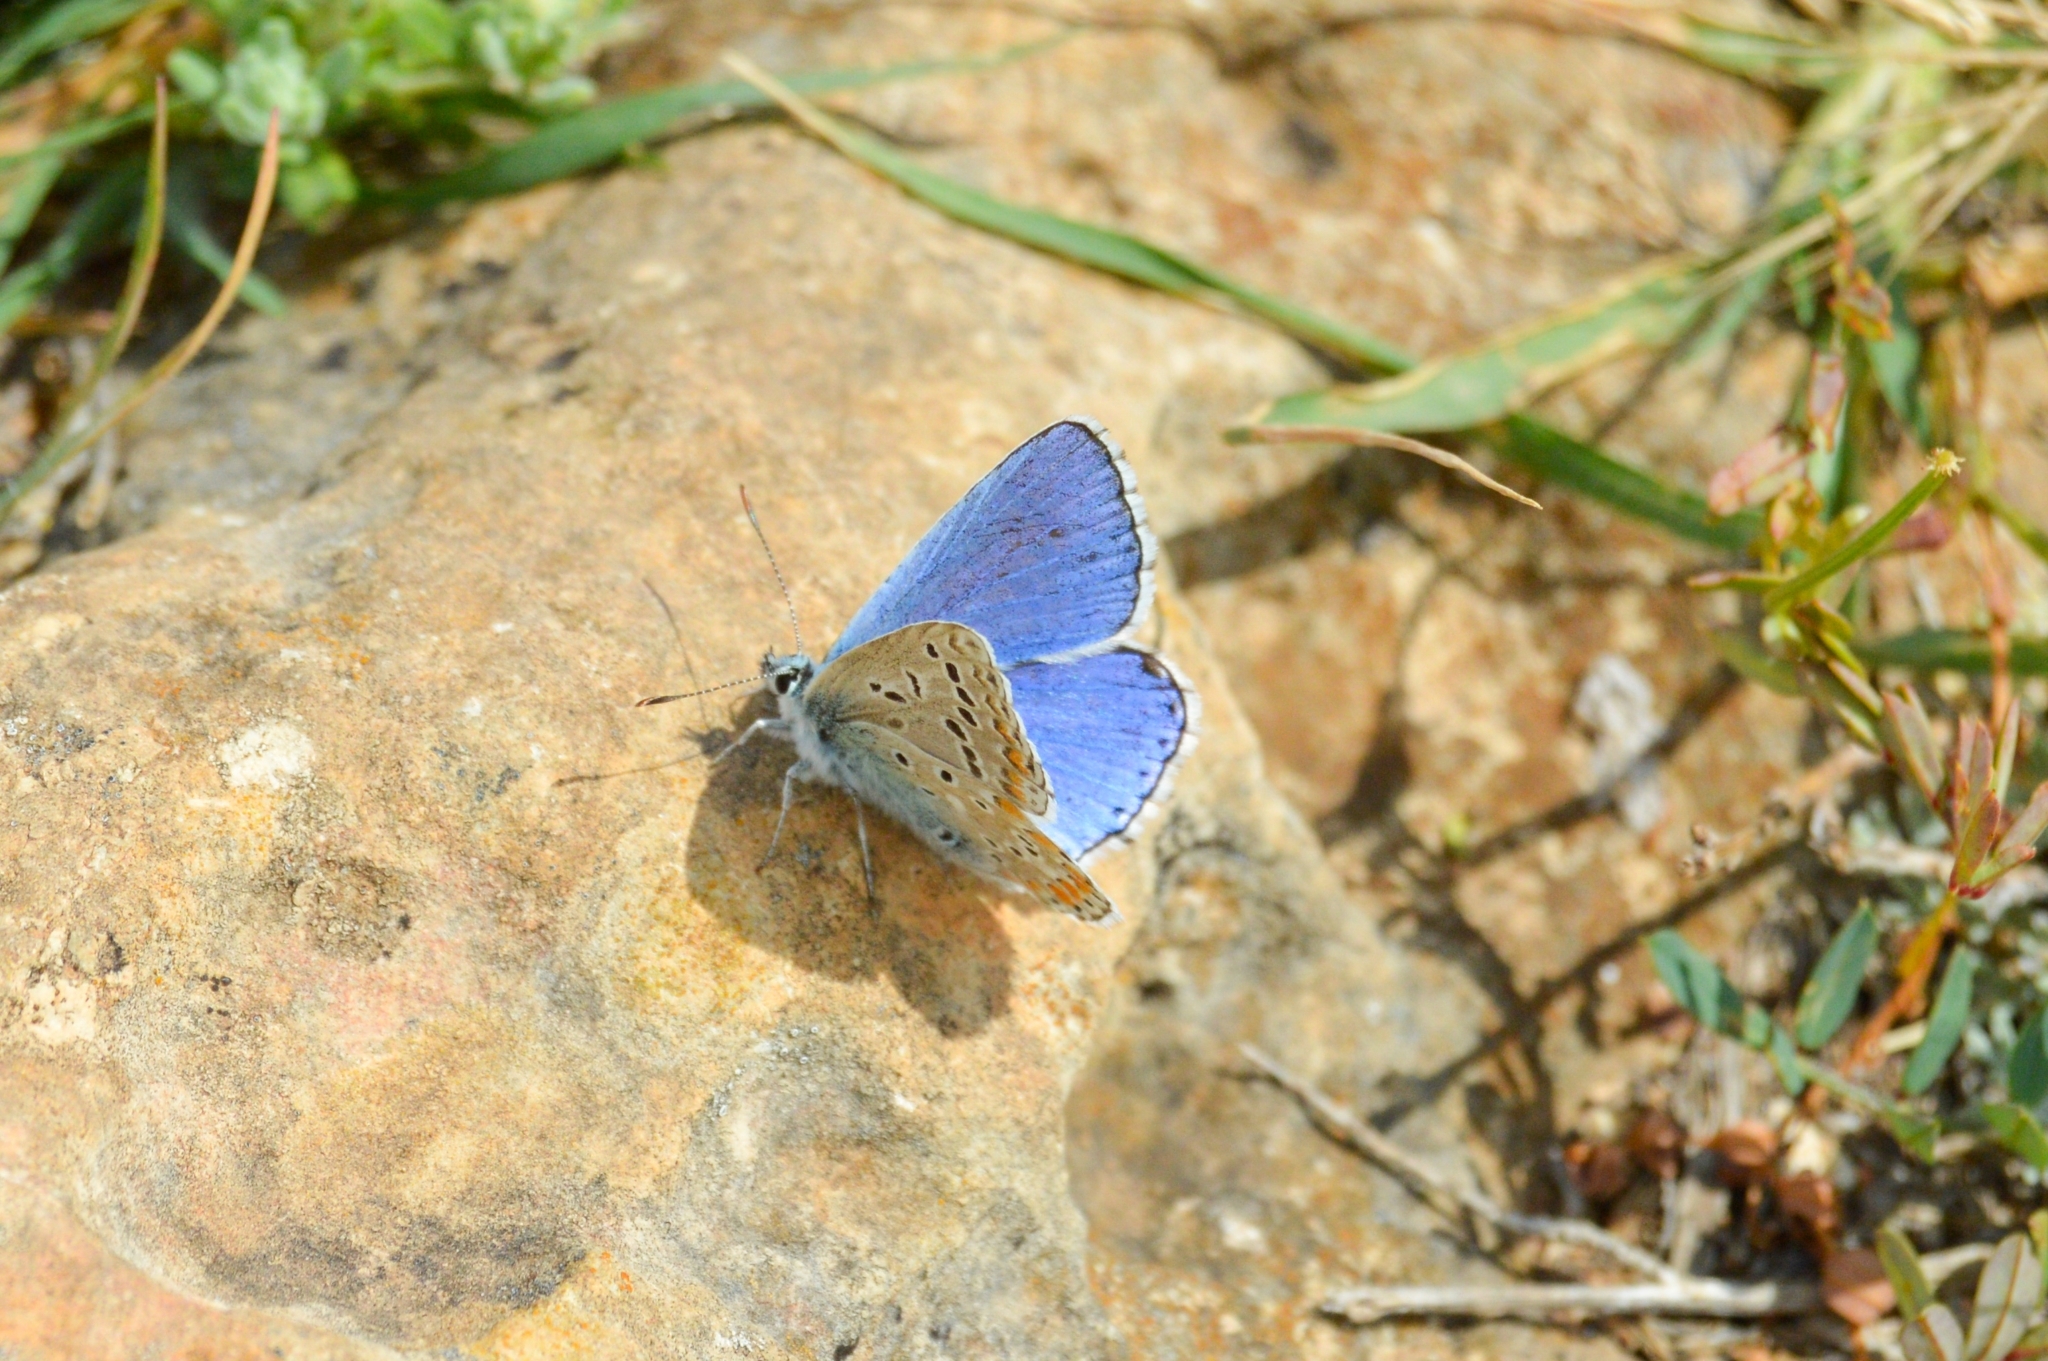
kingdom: Animalia
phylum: Arthropoda
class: Insecta
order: Lepidoptera
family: Lycaenidae
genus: Lysandra
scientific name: Lysandra bellargus
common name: Adonis blue
